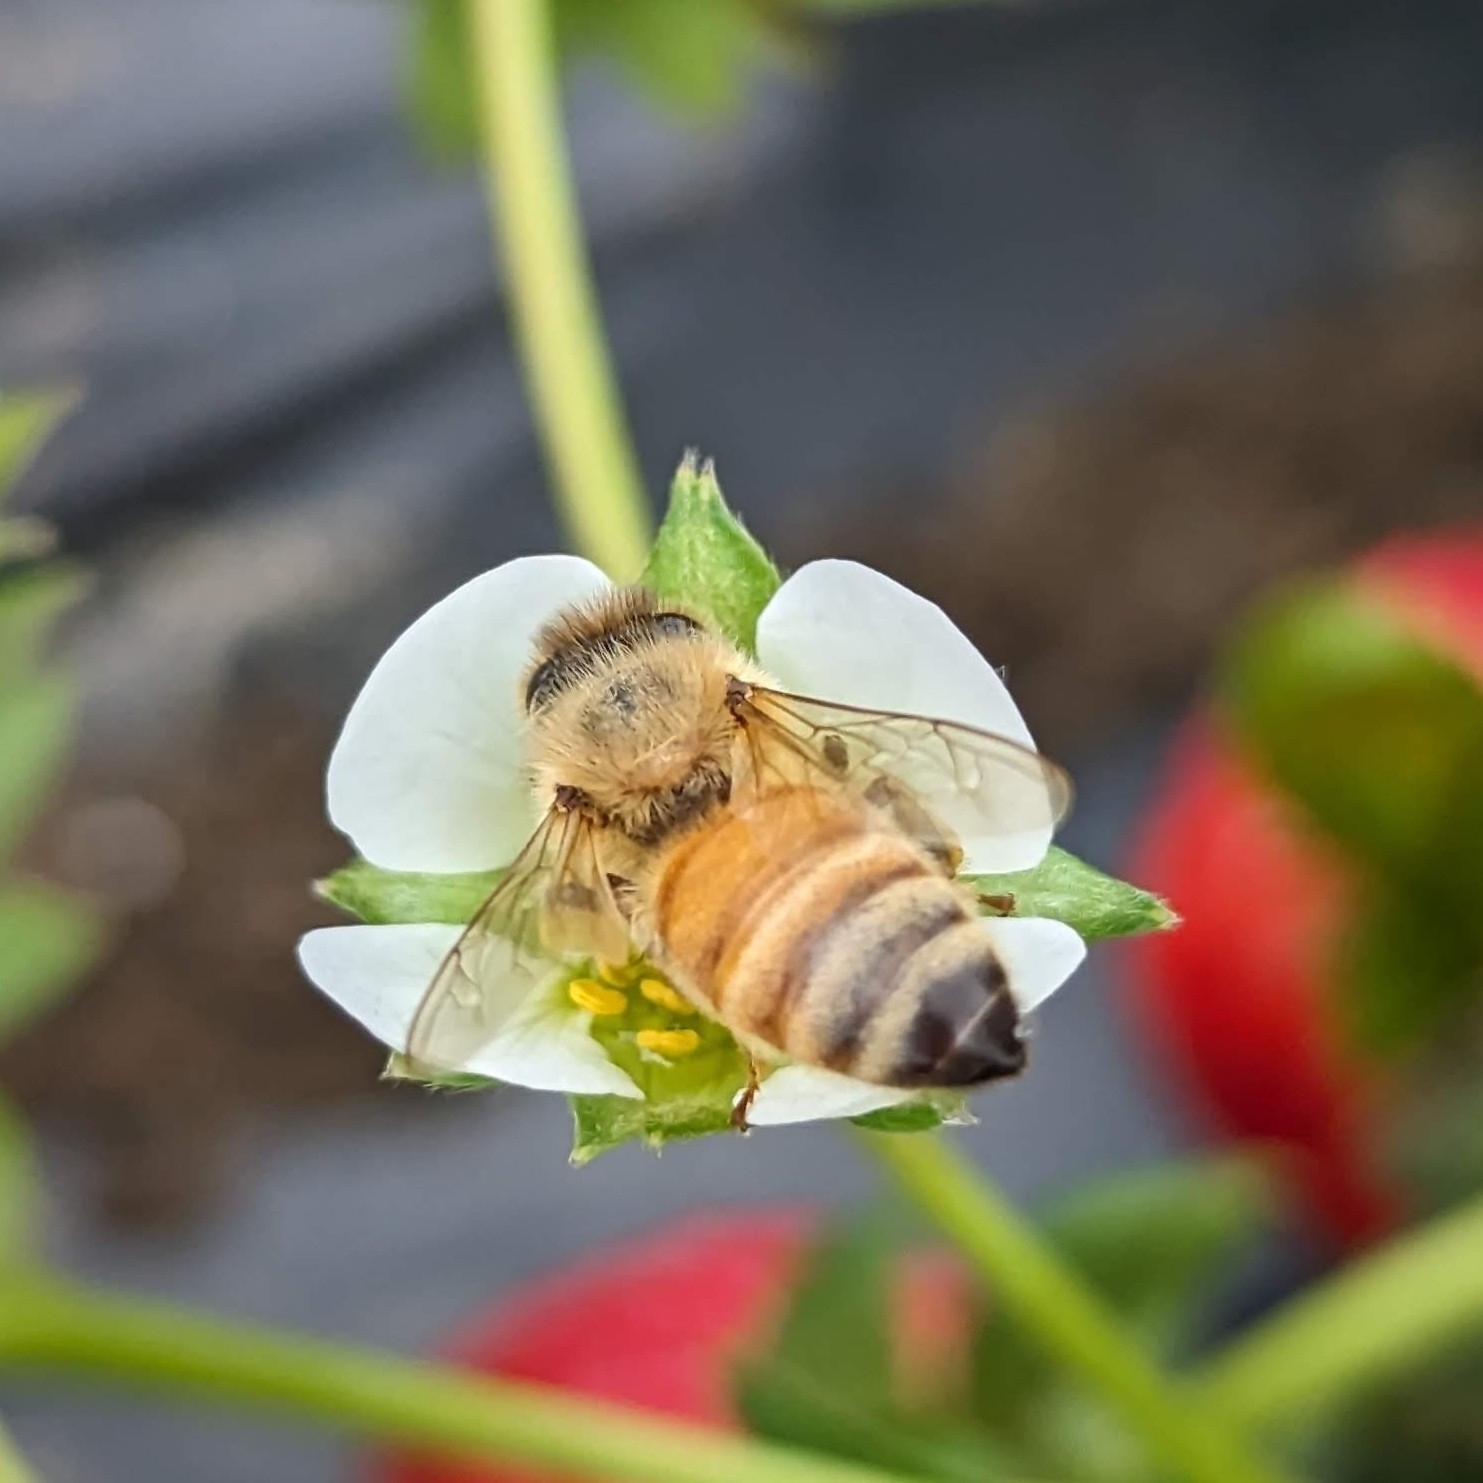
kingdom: Animalia
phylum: Arthropoda
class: Insecta
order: Hymenoptera
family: Apidae
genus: Apis
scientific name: Apis mellifera
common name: Honey bee
